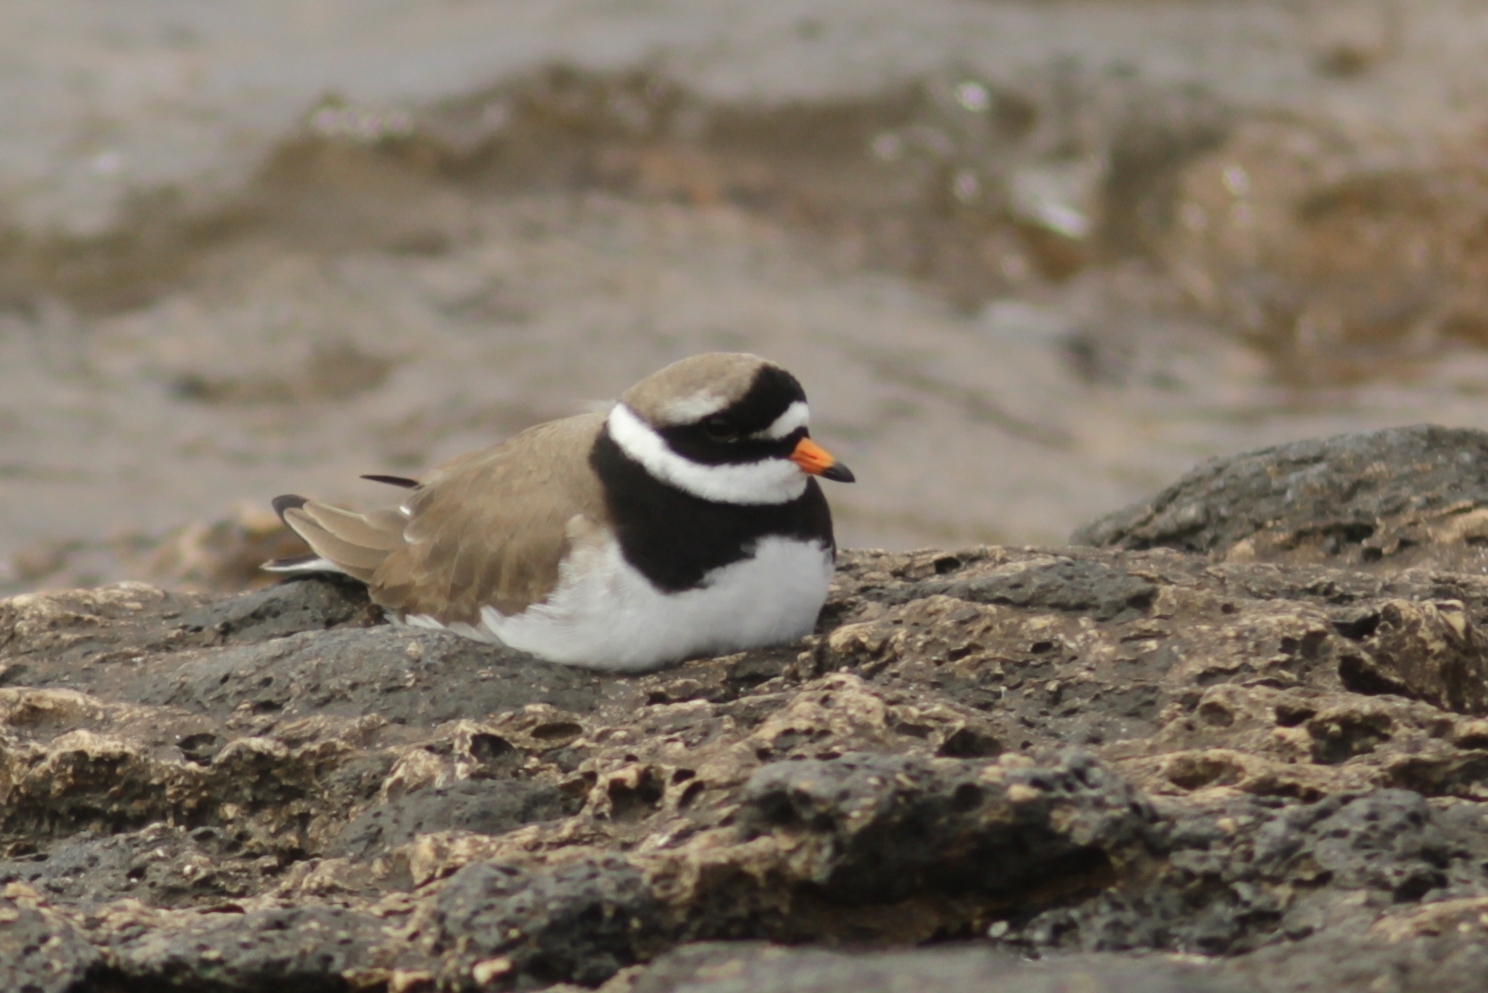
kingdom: Animalia
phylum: Chordata
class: Aves
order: Charadriiformes
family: Charadriidae
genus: Charadrius
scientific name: Charadrius hiaticula
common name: Common ringed plover
